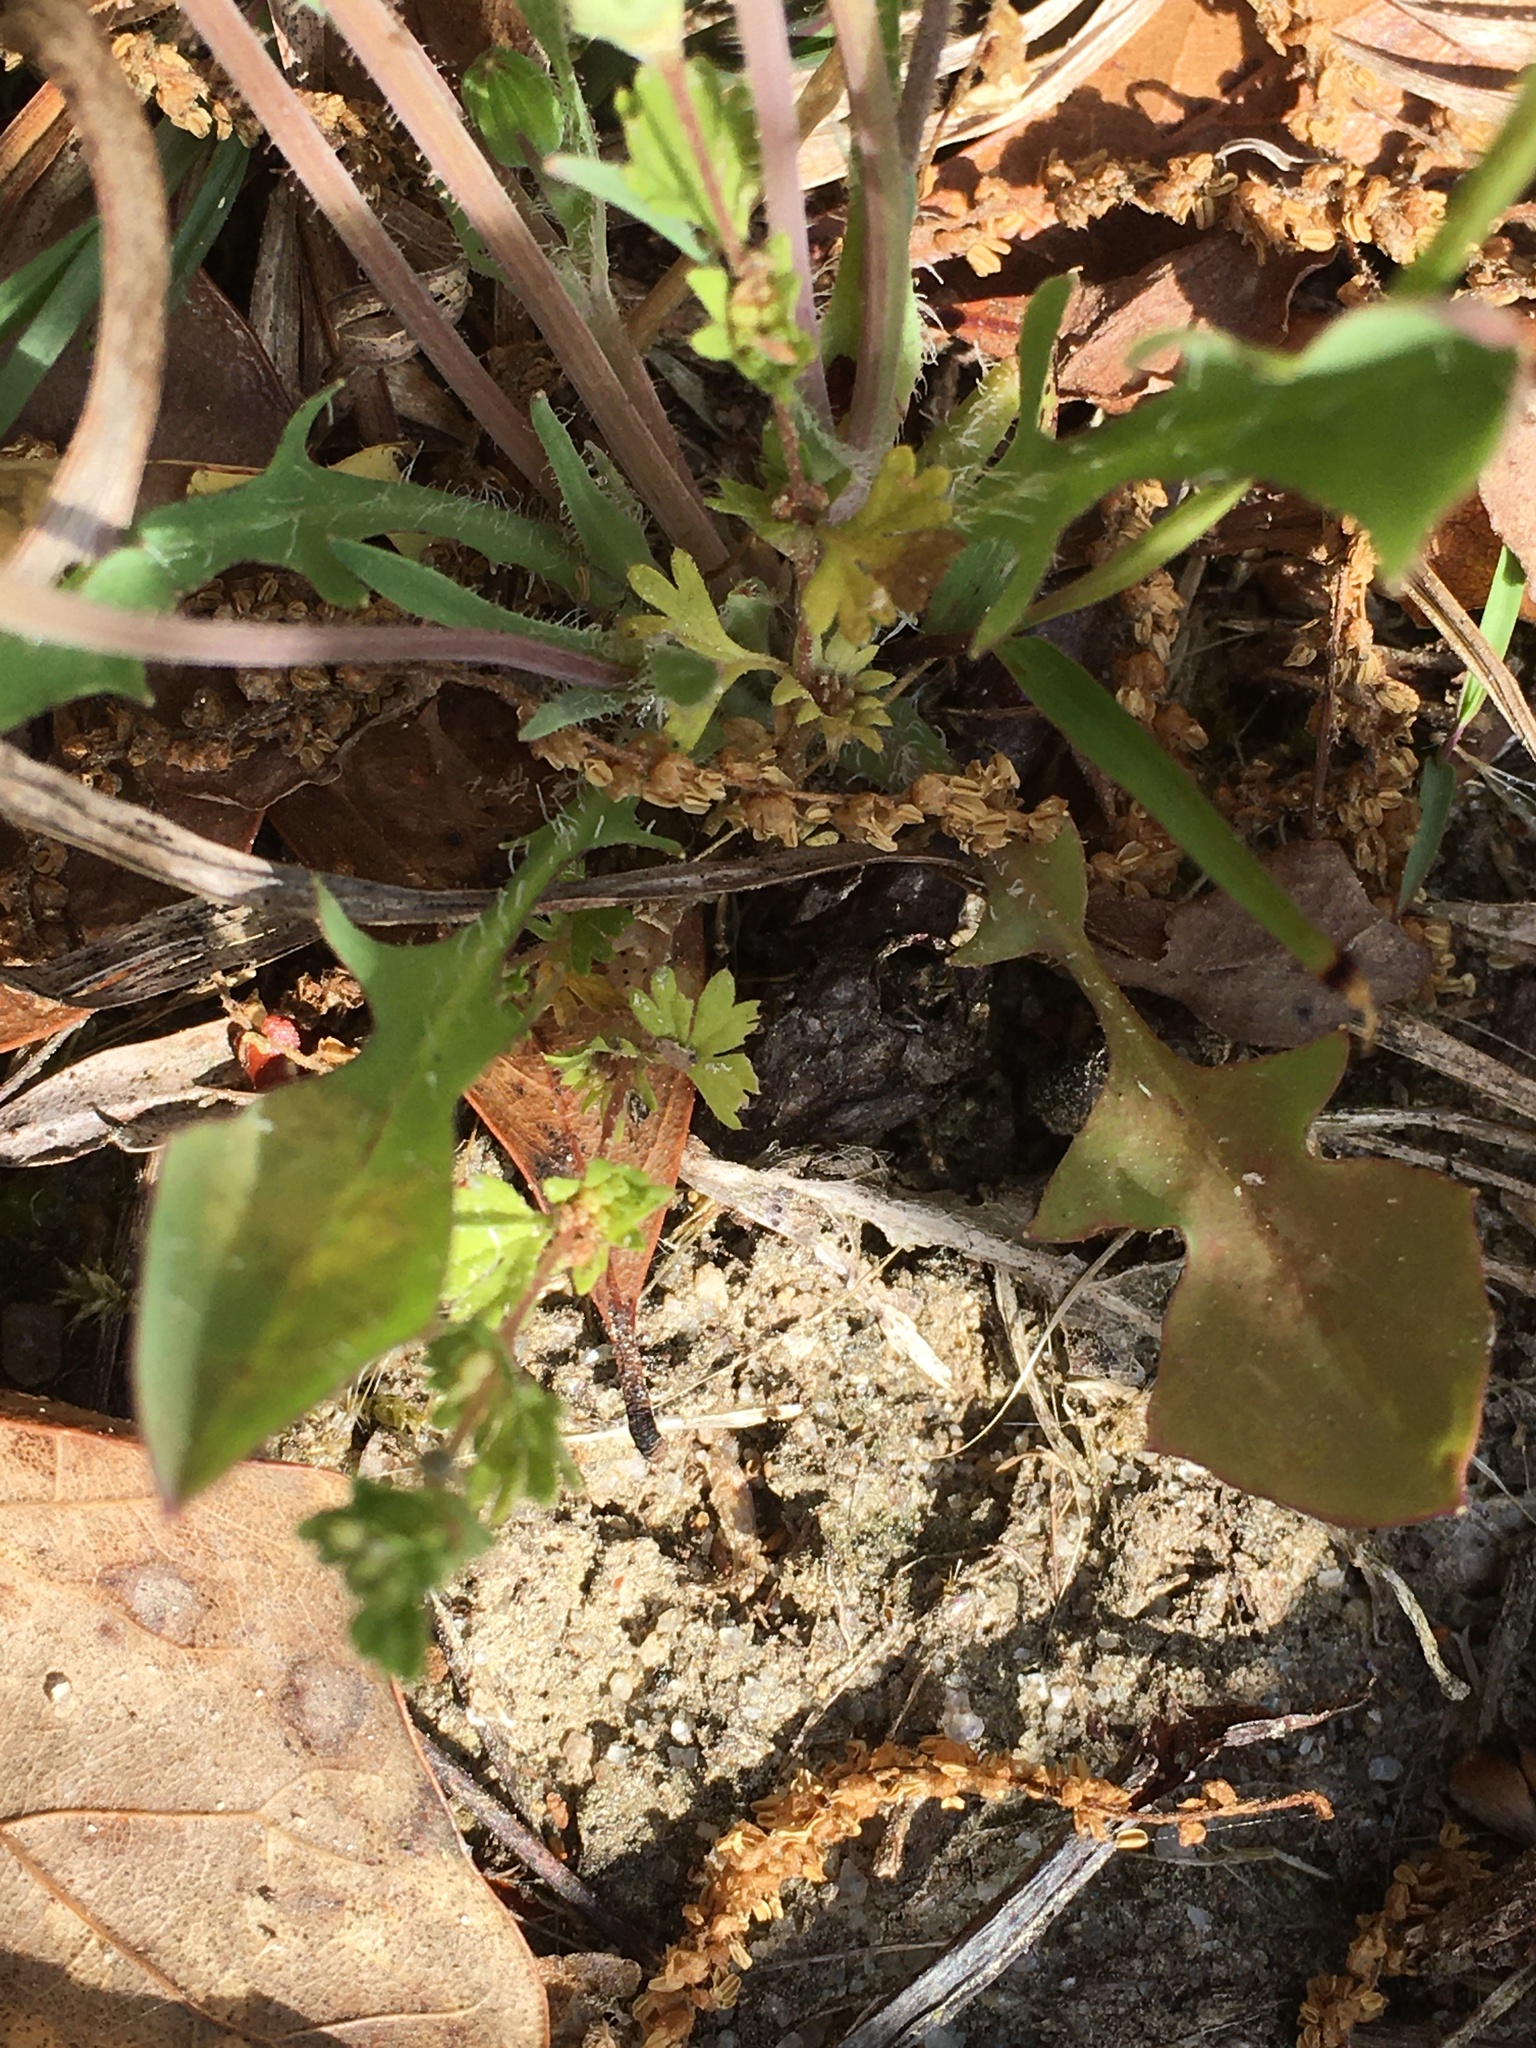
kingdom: Plantae
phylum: Tracheophyta
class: Magnoliopsida
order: Asterales
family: Asteraceae
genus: Krigia
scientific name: Krigia virginica
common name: Virginia dwarf-dandelion
